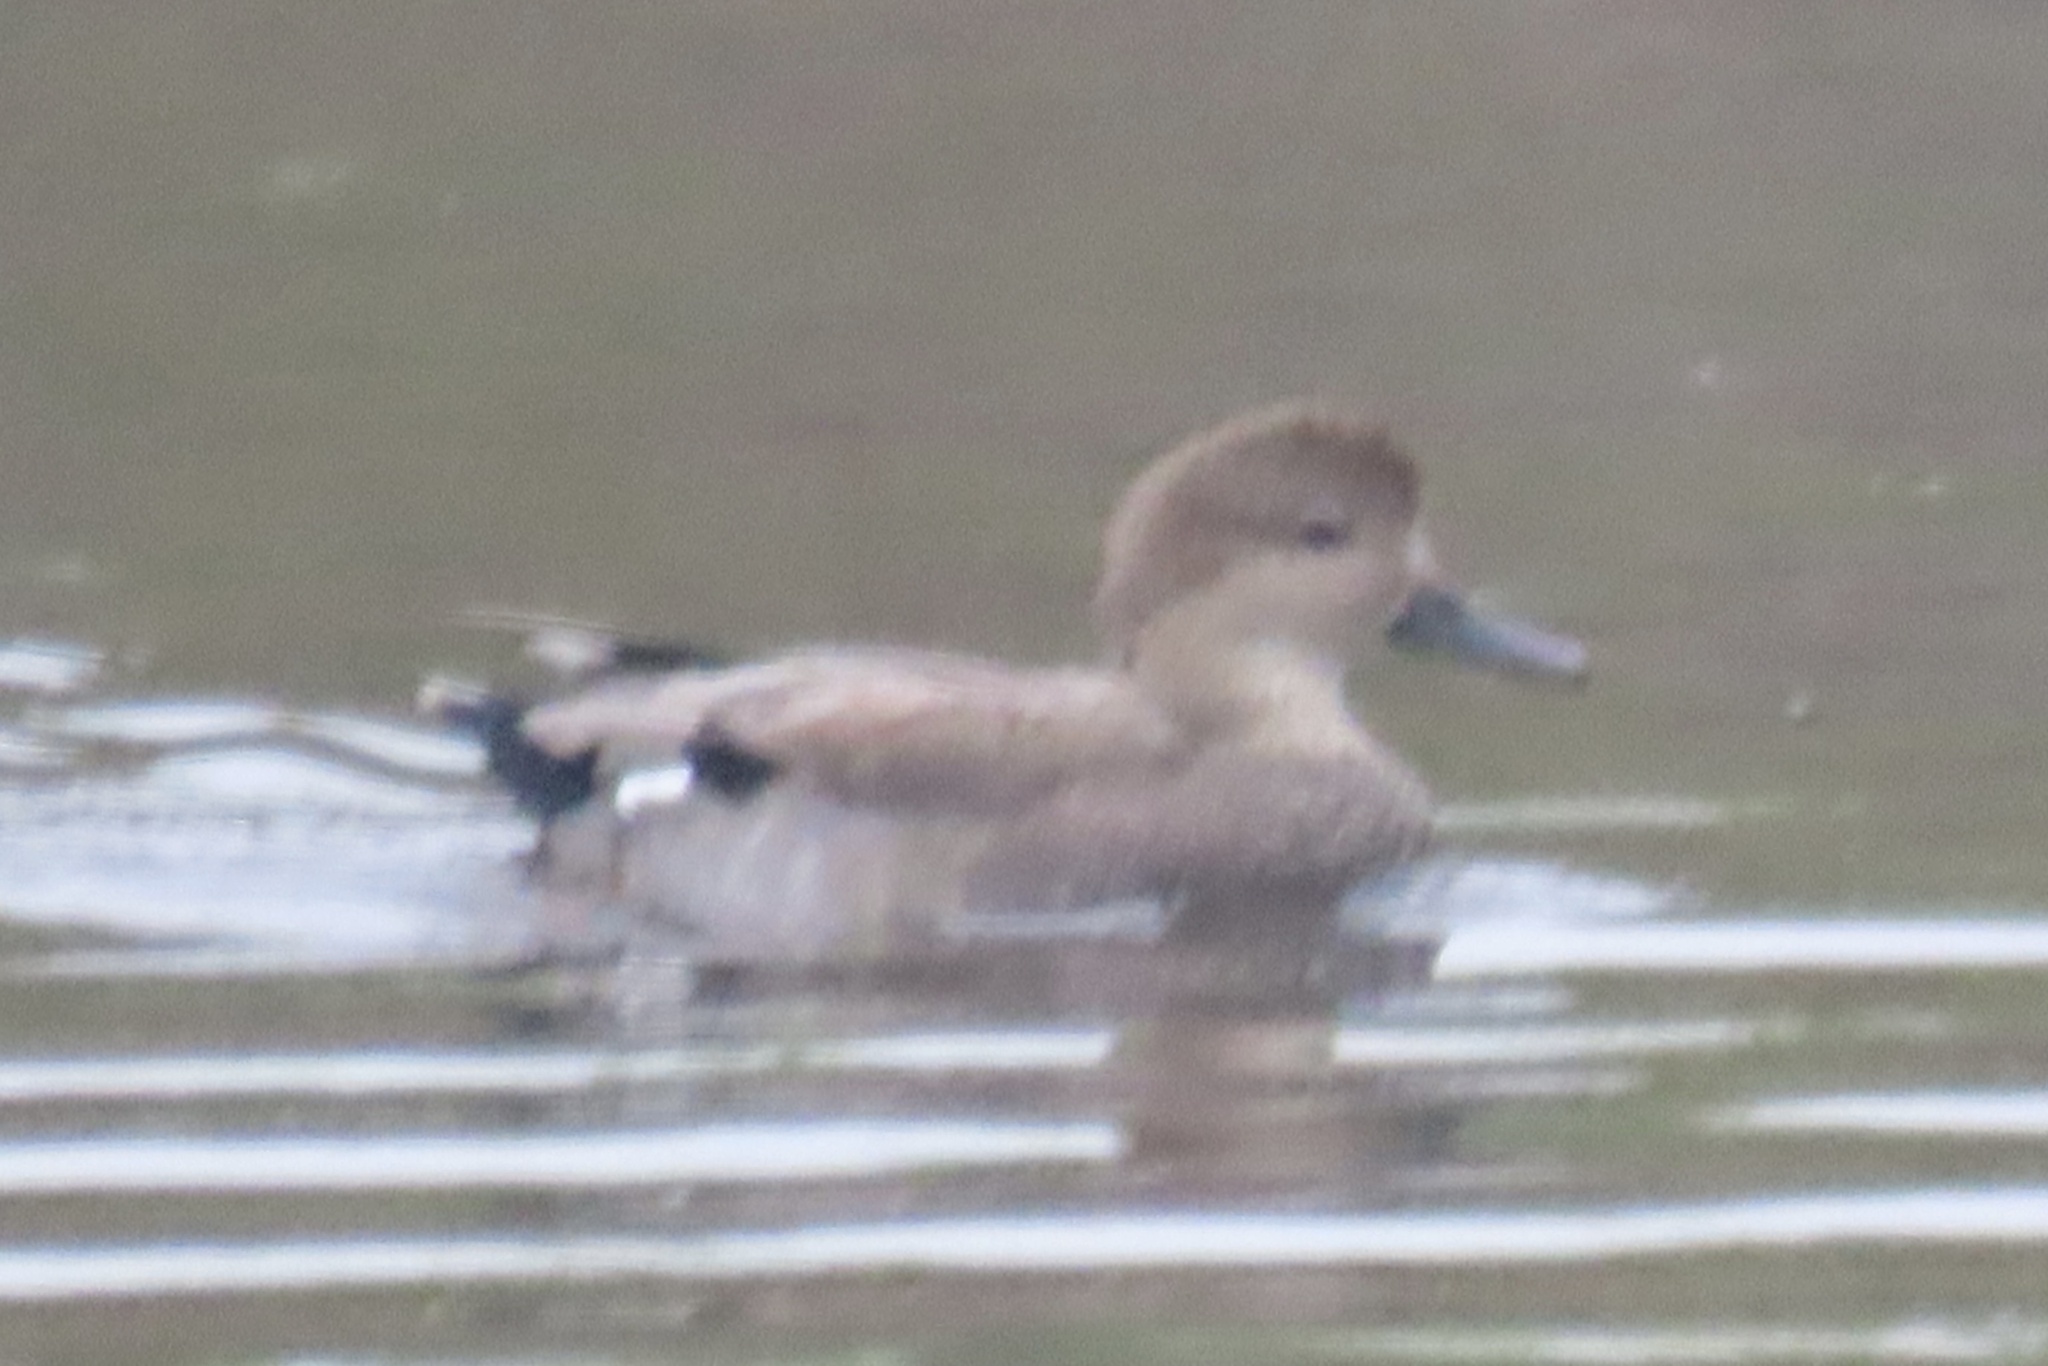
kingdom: Animalia
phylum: Chordata
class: Aves
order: Anseriformes
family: Anatidae
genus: Mareca
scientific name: Mareca strepera
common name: Gadwall
